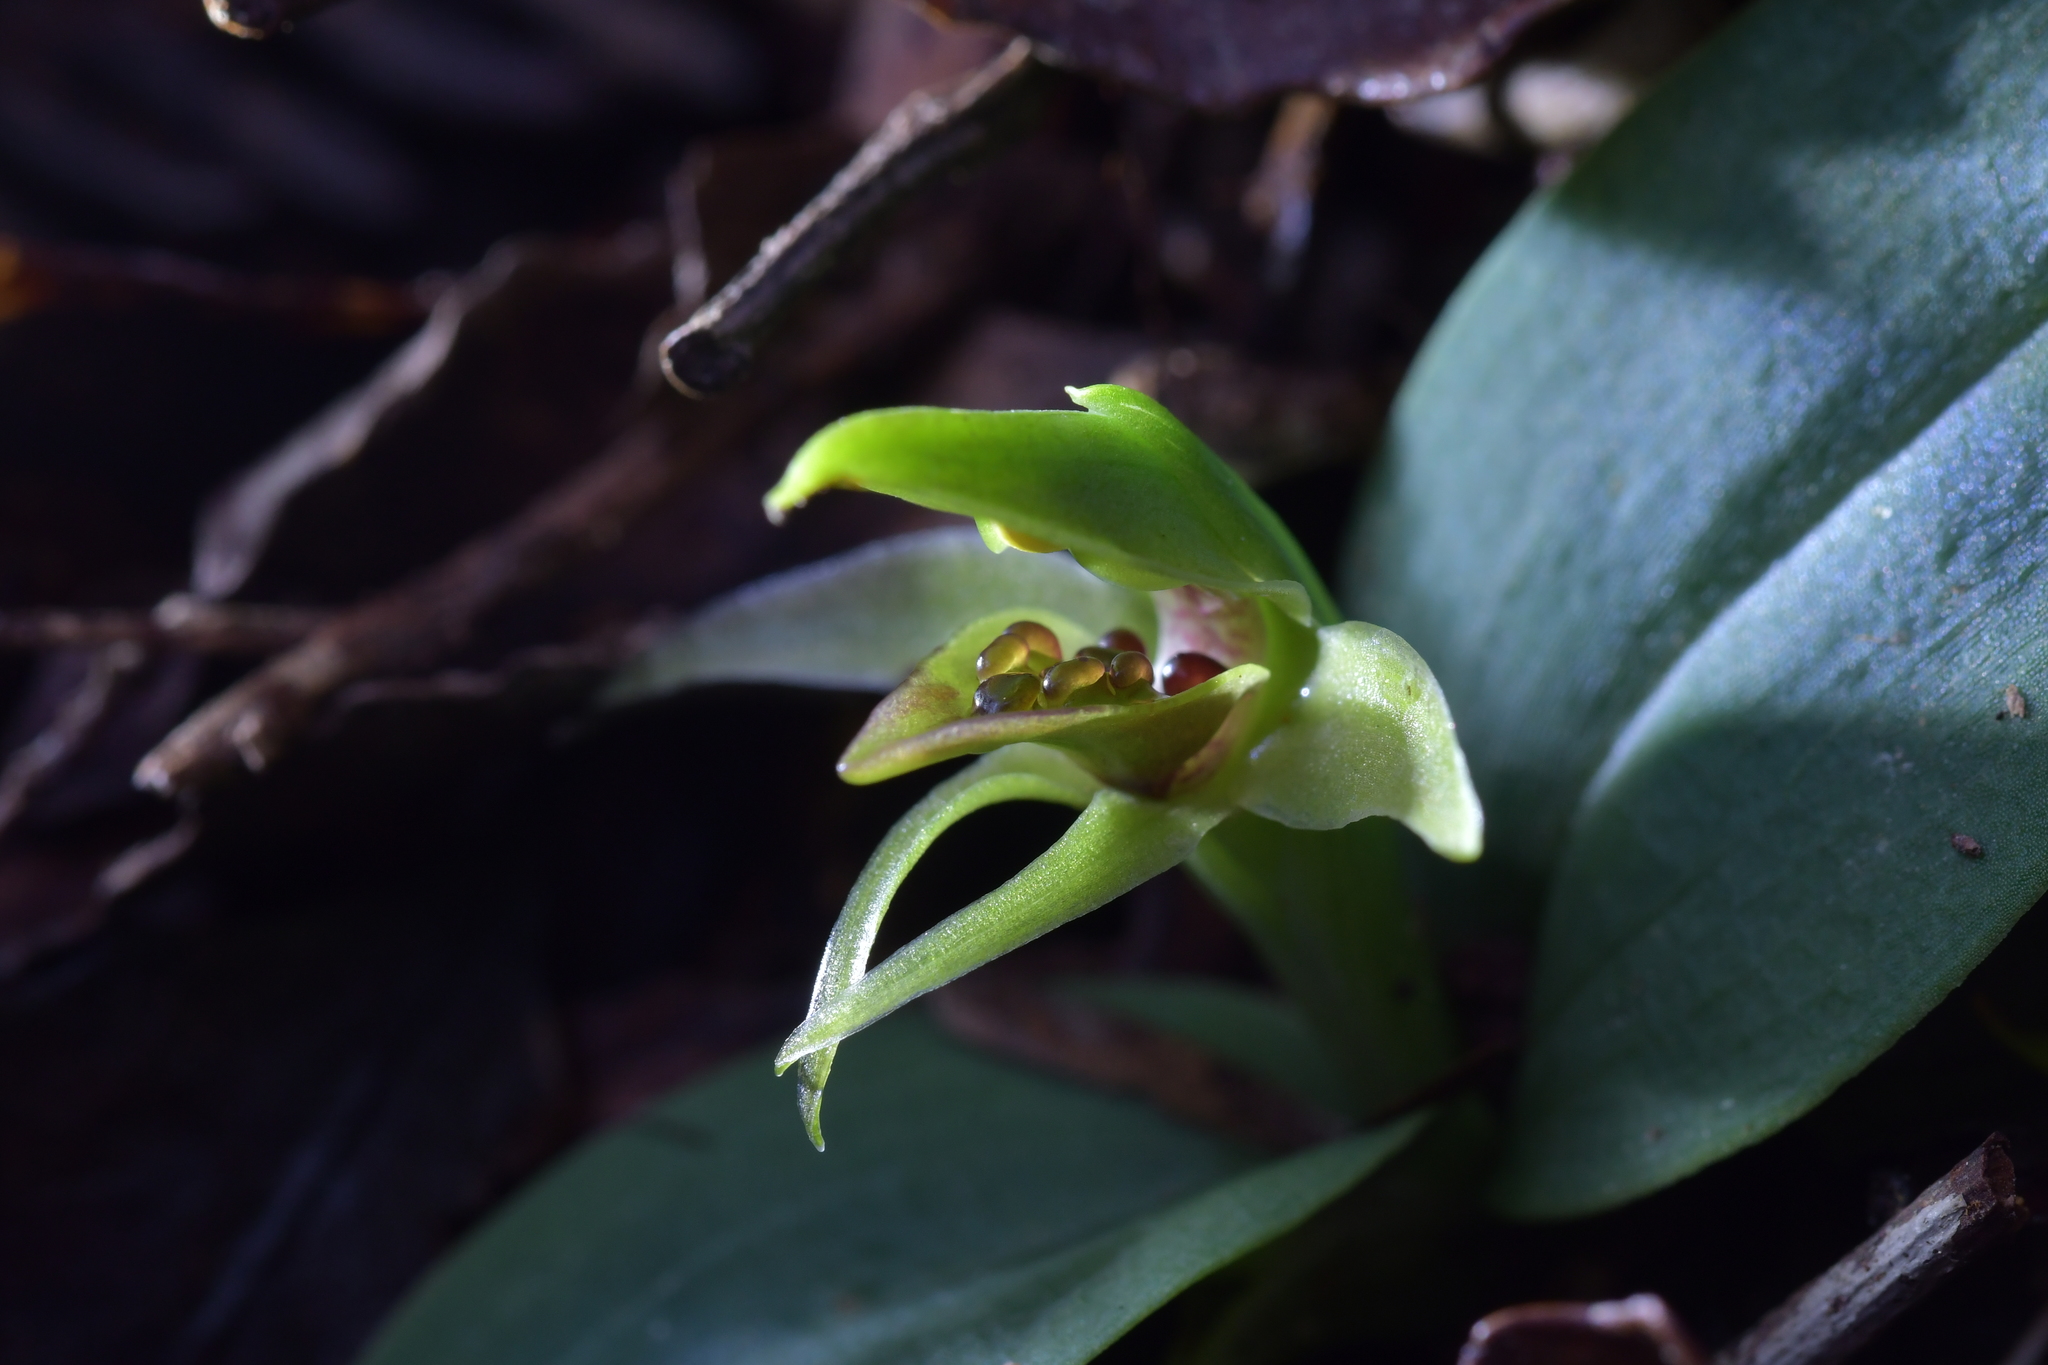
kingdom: Plantae
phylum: Tracheophyta
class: Liliopsida
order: Asparagales
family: Orchidaceae
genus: Chiloglottis
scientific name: Chiloglottis cornuta
